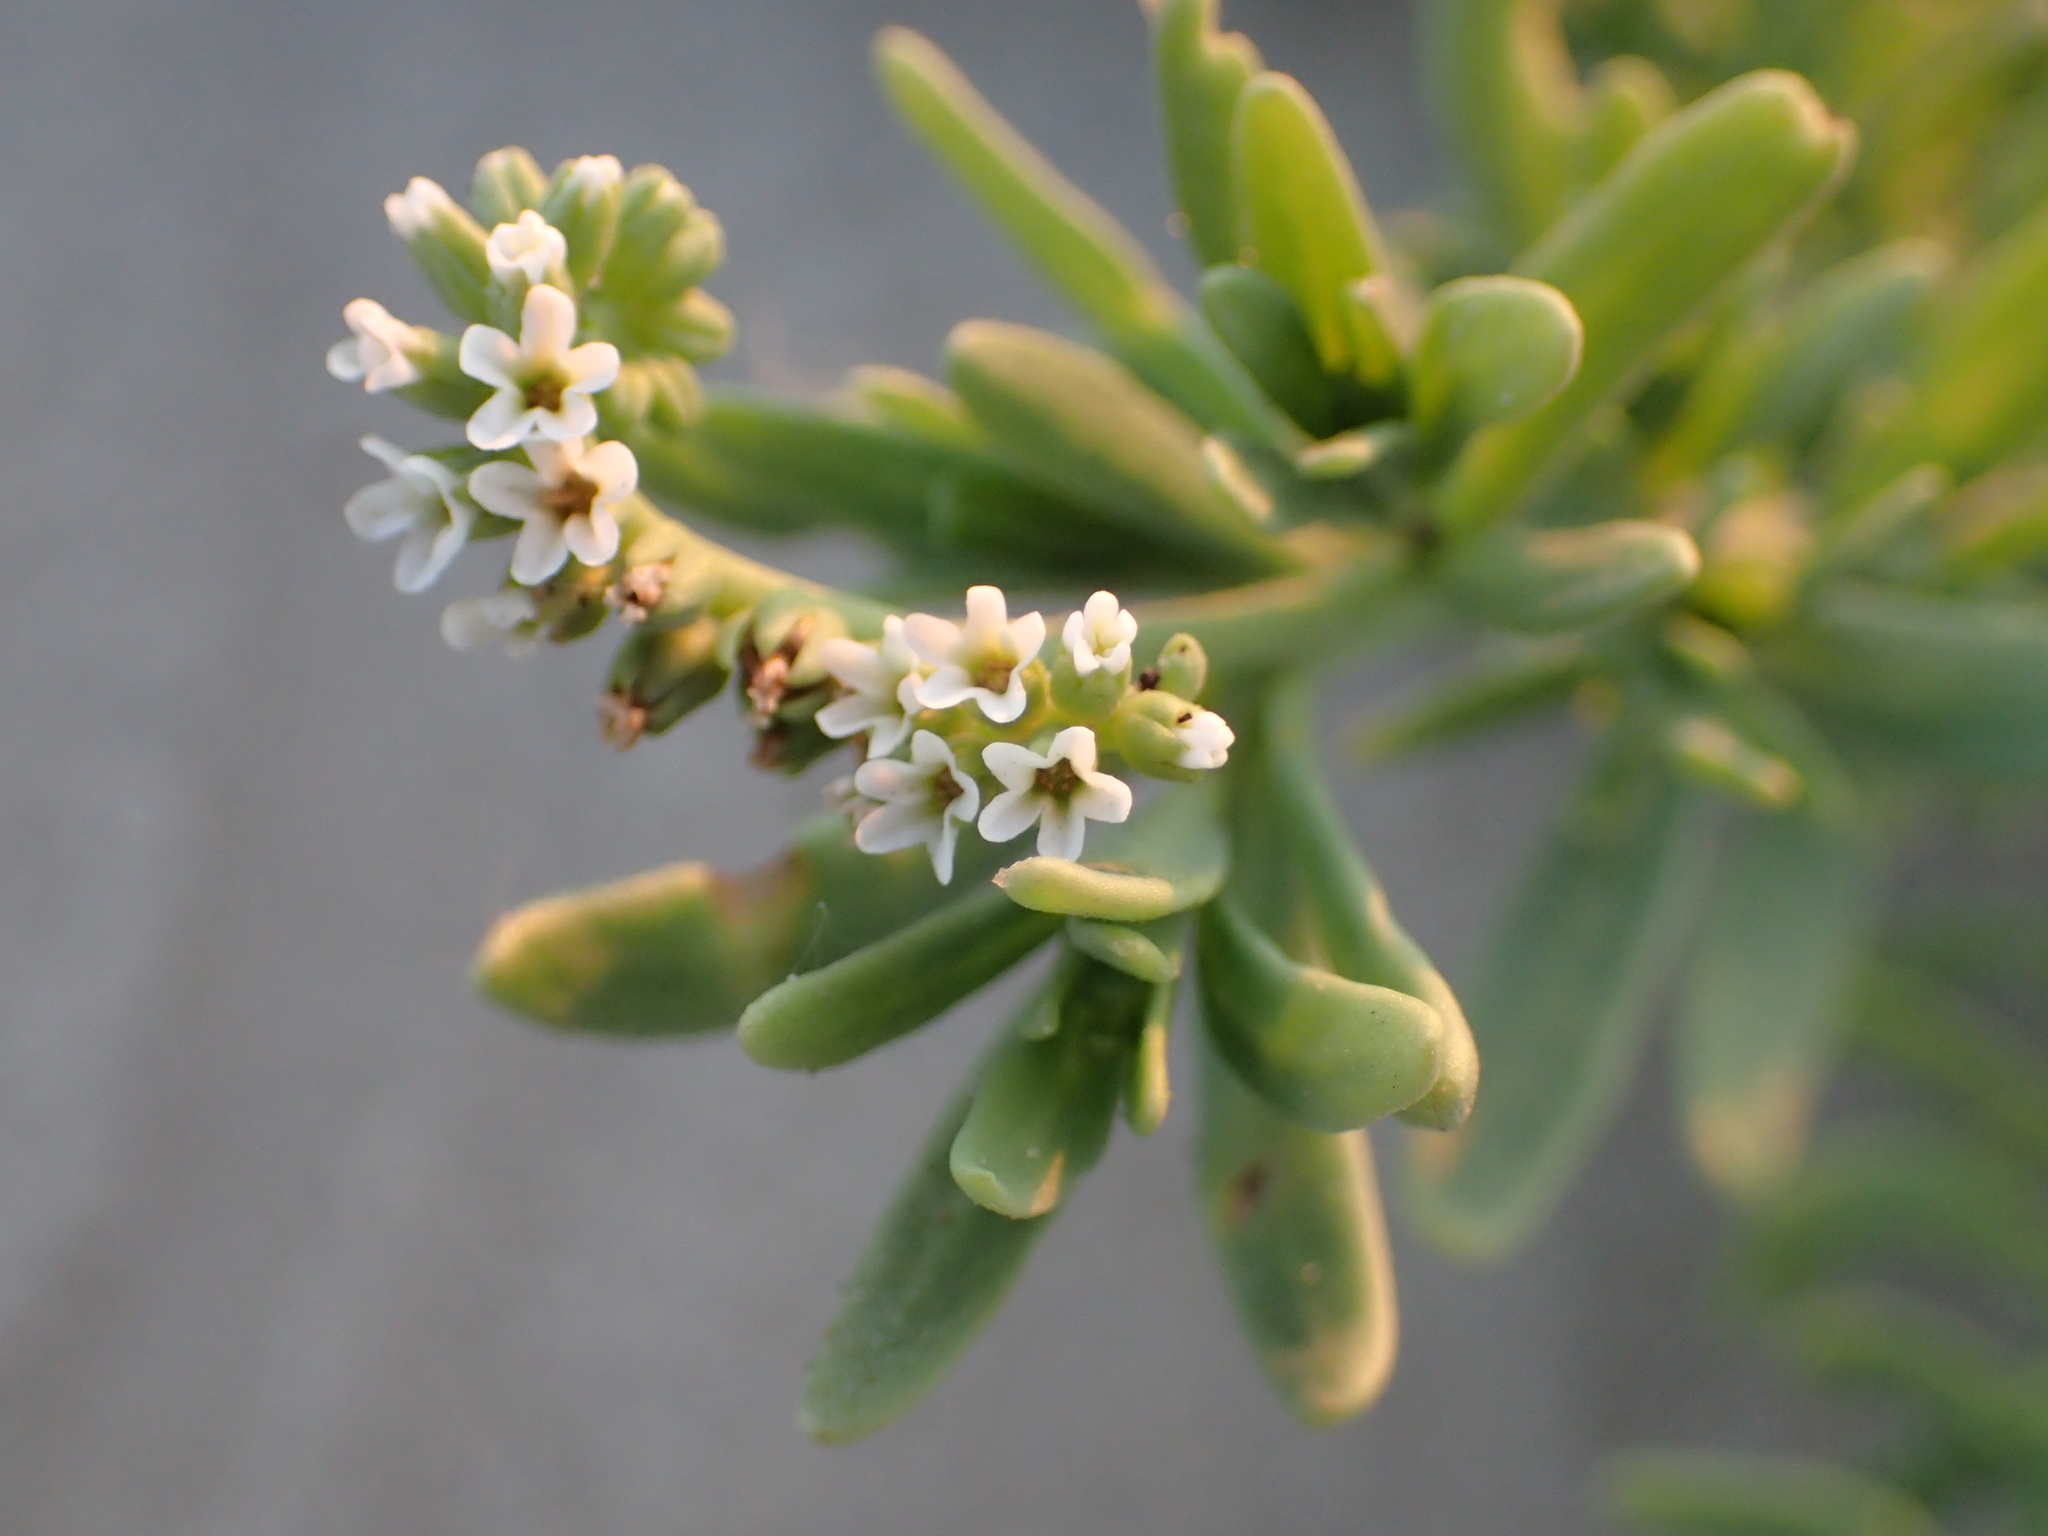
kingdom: Plantae
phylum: Tracheophyta
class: Magnoliopsida
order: Boraginales
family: Heliotropiaceae
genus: Heliotropium
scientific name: Heliotropium curassavicum
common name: Seaside heliotrope
